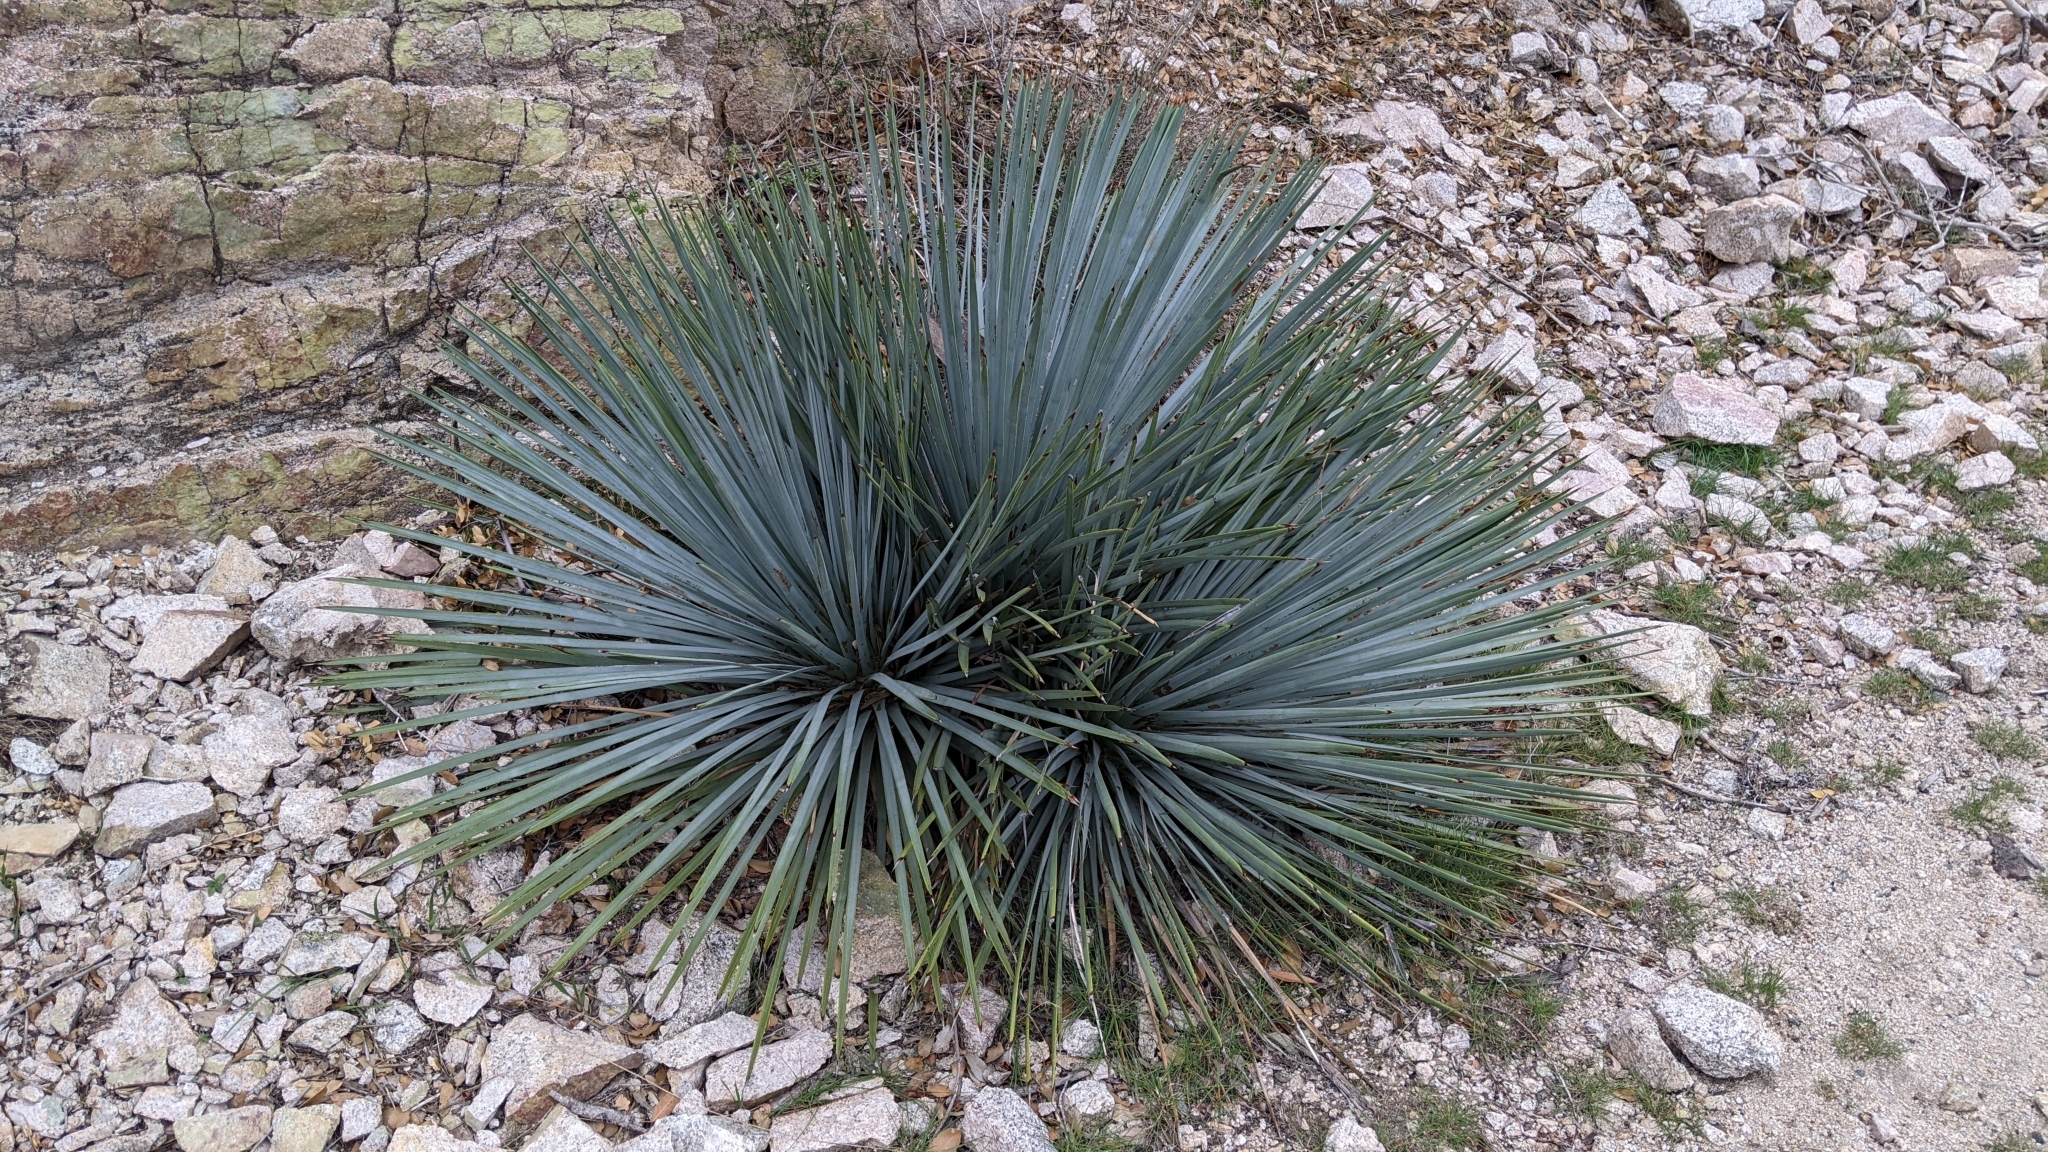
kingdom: Plantae
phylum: Tracheophyta
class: Liliopsida
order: Asparagales
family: Asparagaceae
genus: Hesperoyucca
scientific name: Hesperoyucca whipplei
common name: Our lord's-candle
